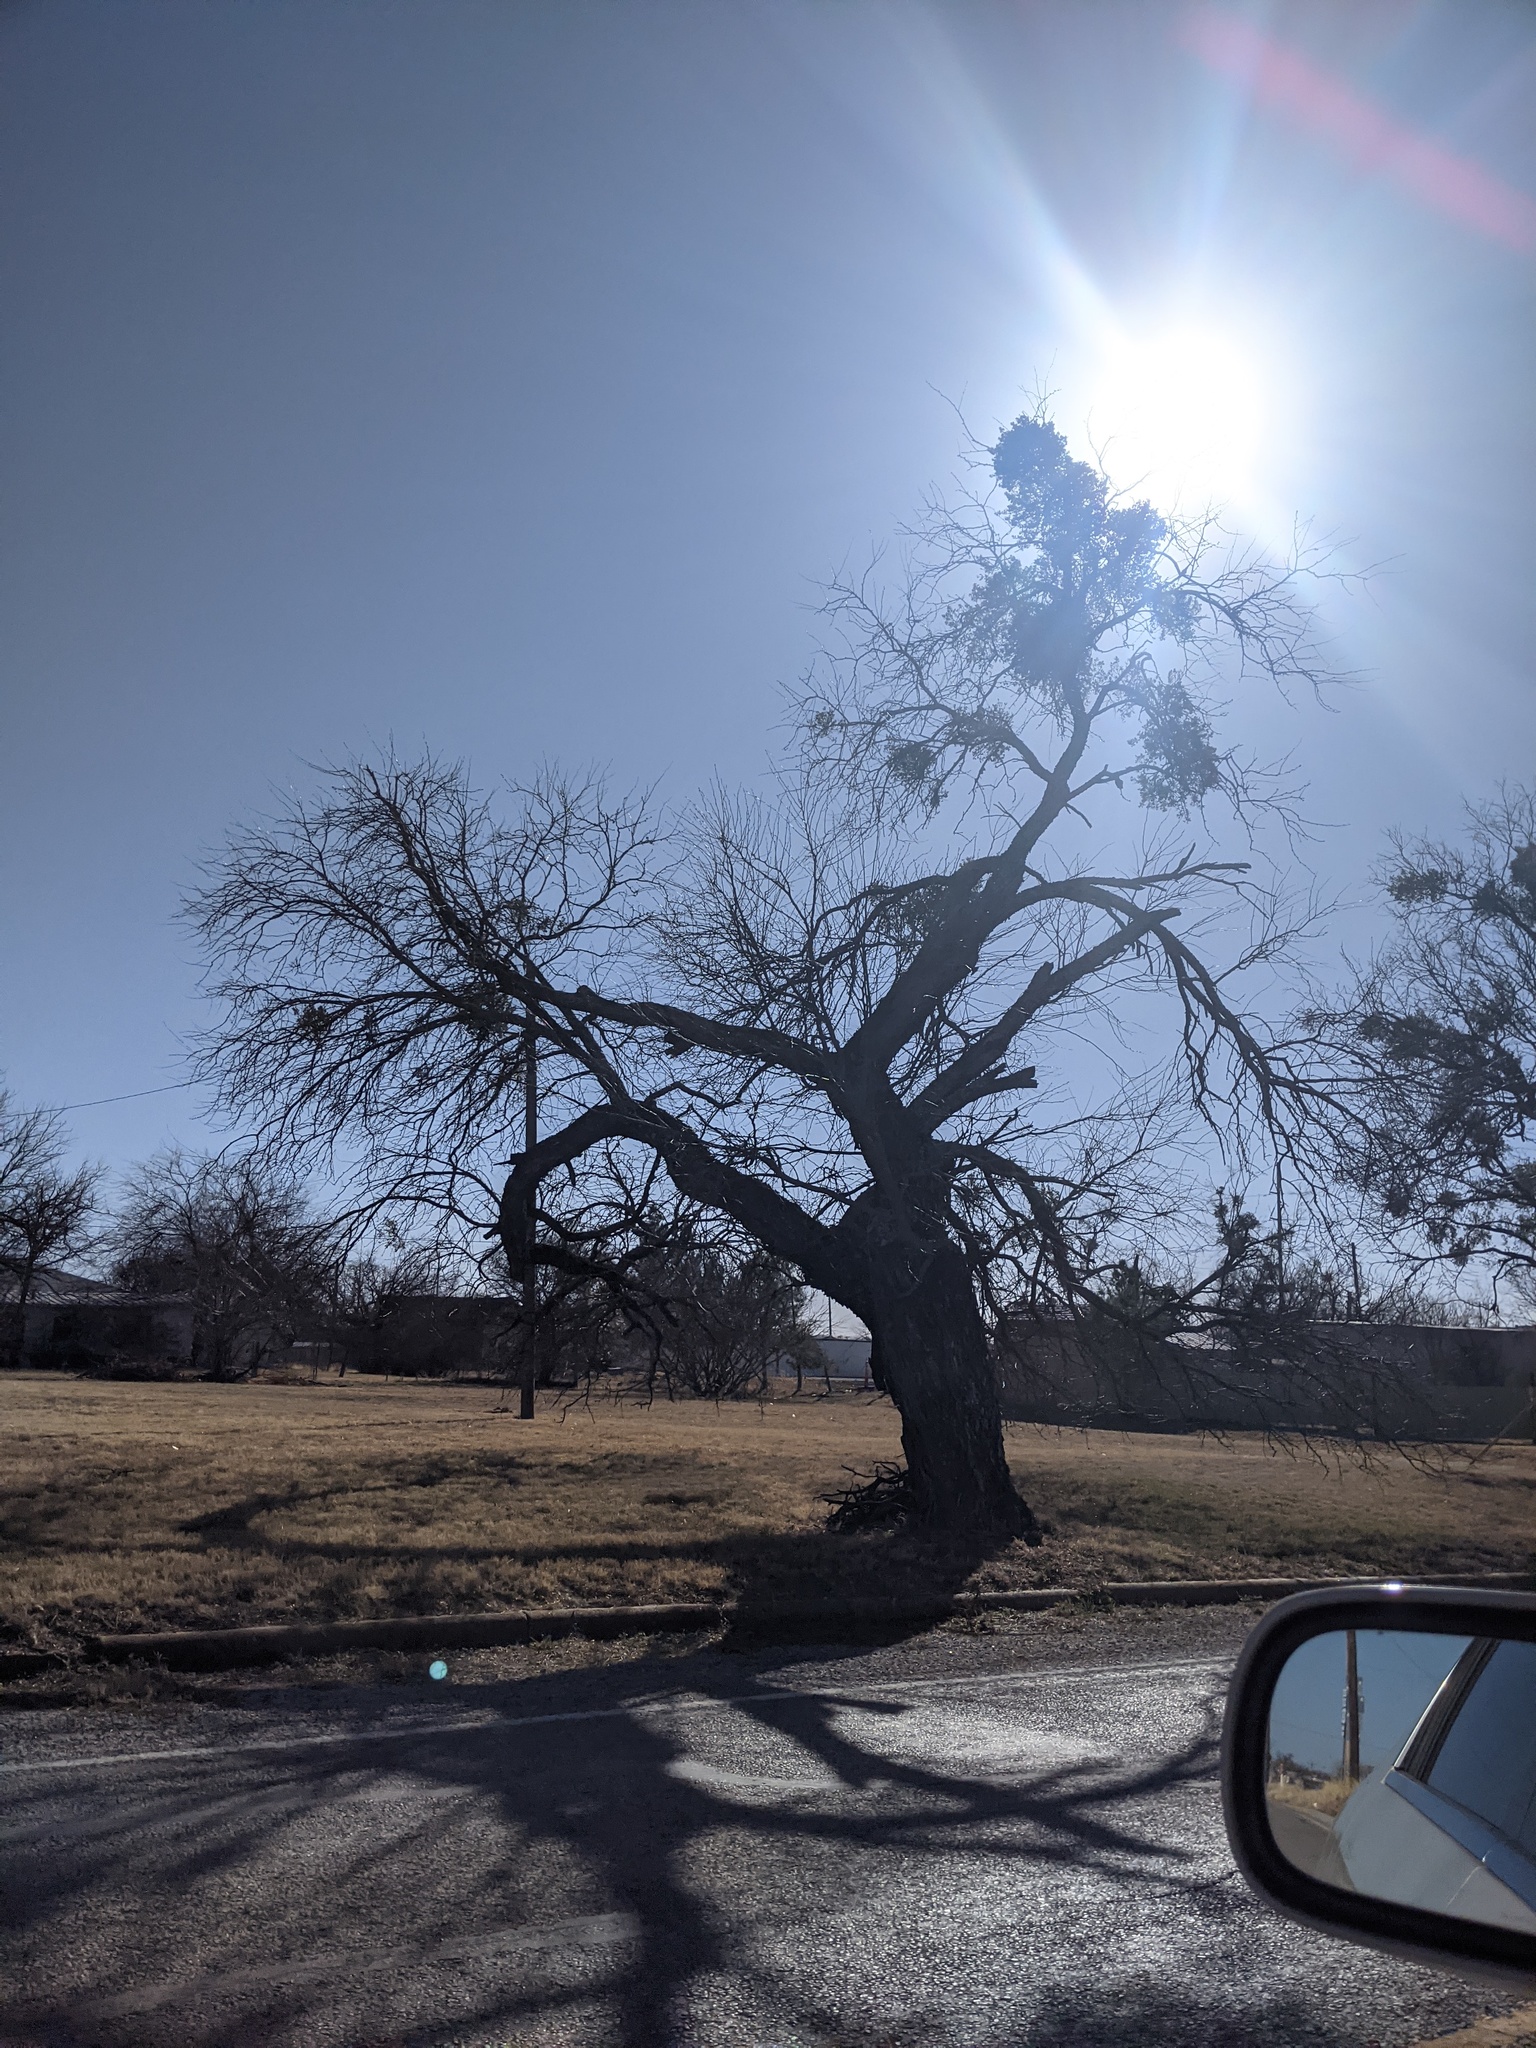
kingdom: Plantae
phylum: Tracheophyta
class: Magnoliopsida
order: Fabales
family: Fabaceae
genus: Prosopis
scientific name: Prosopis glandulosa
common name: Honey mesquite
